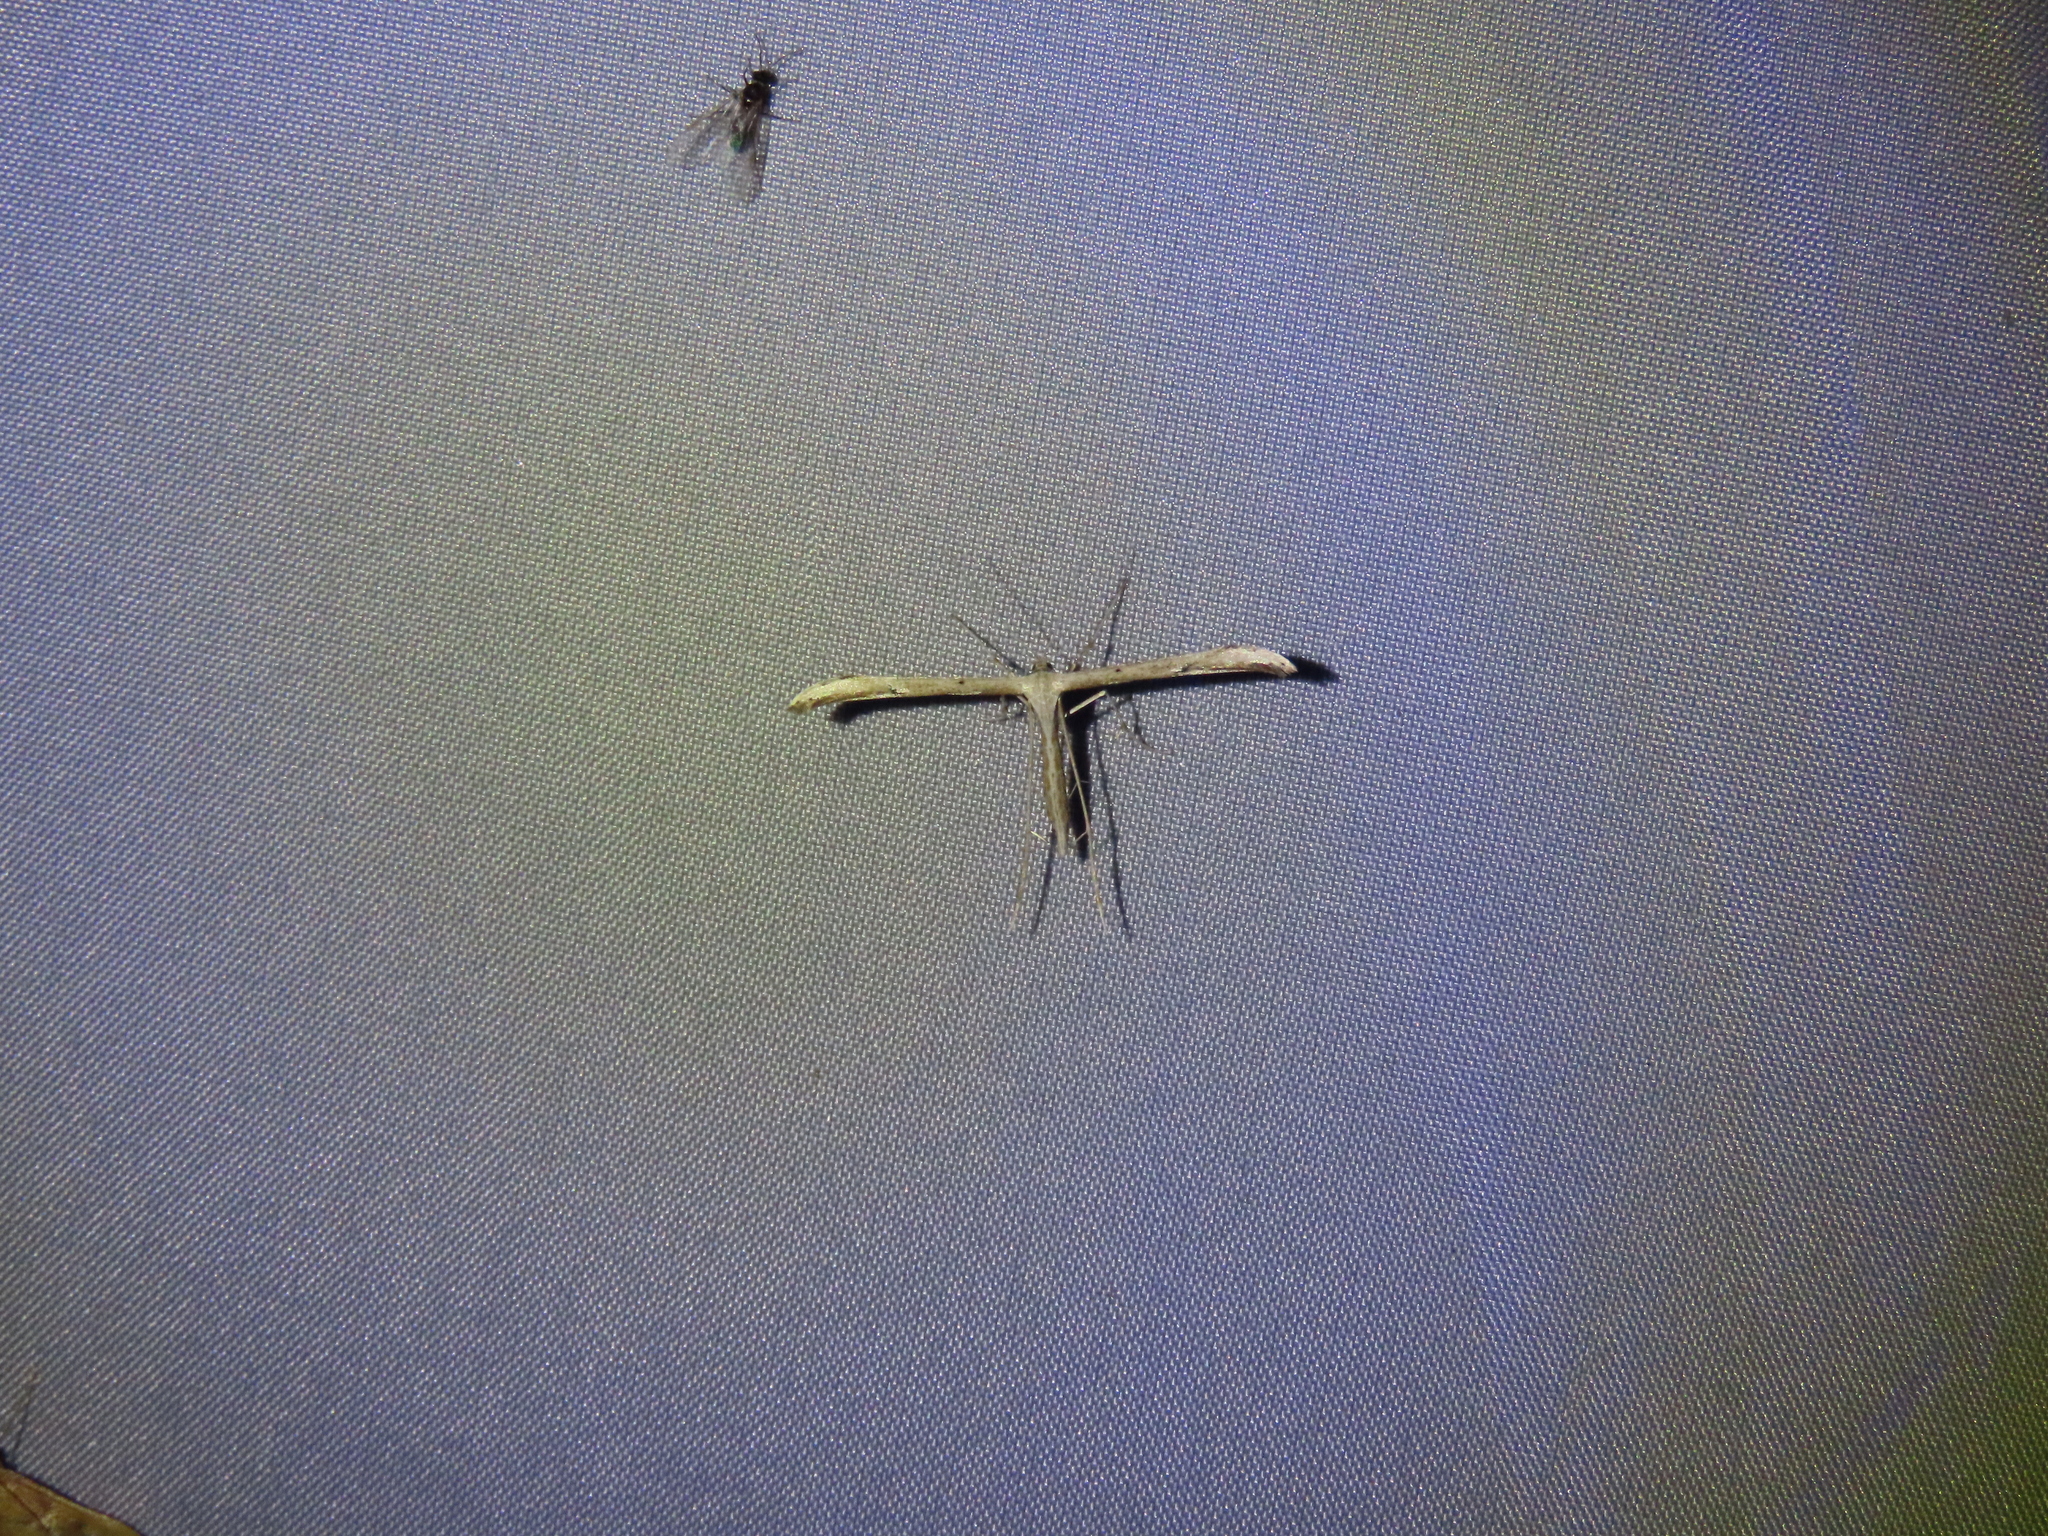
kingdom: Animalia
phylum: Arthropoda
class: Insecta
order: Lepidoptera
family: Pterophoridae
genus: Emmelina
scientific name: Emmelina monodactyla
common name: Common plume
